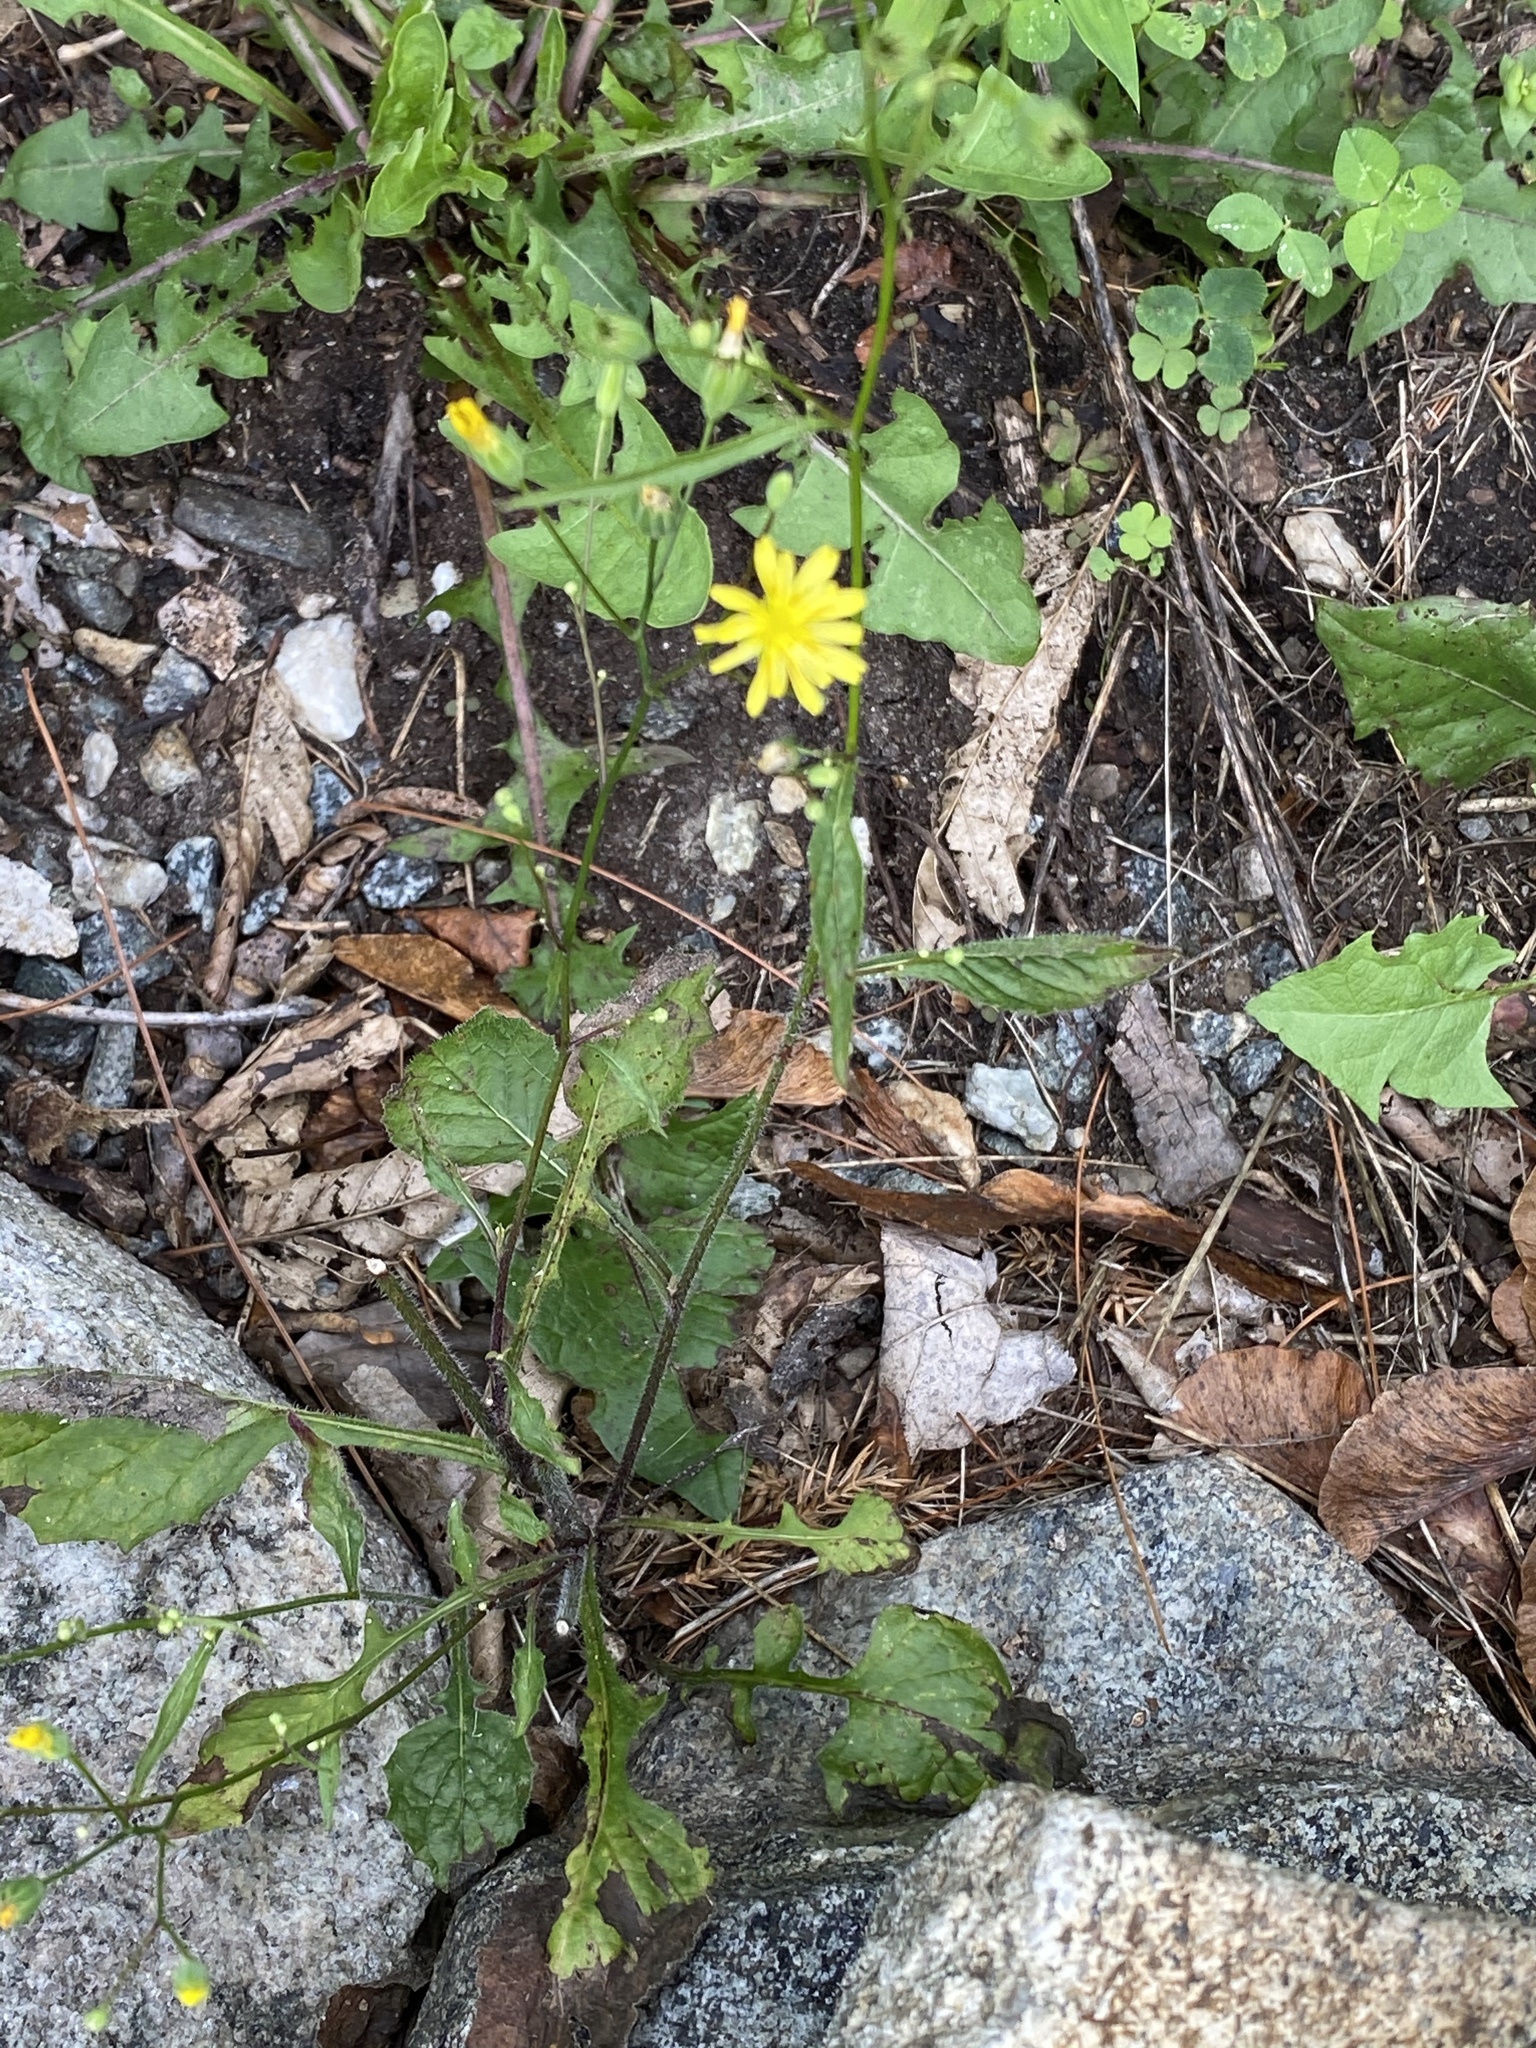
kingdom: Plantae
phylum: Tracheophyta
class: Magnoliopsida
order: Asterales
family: Asteraceae
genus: Lapsana
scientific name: Lapsana communis
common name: Nipplewort
